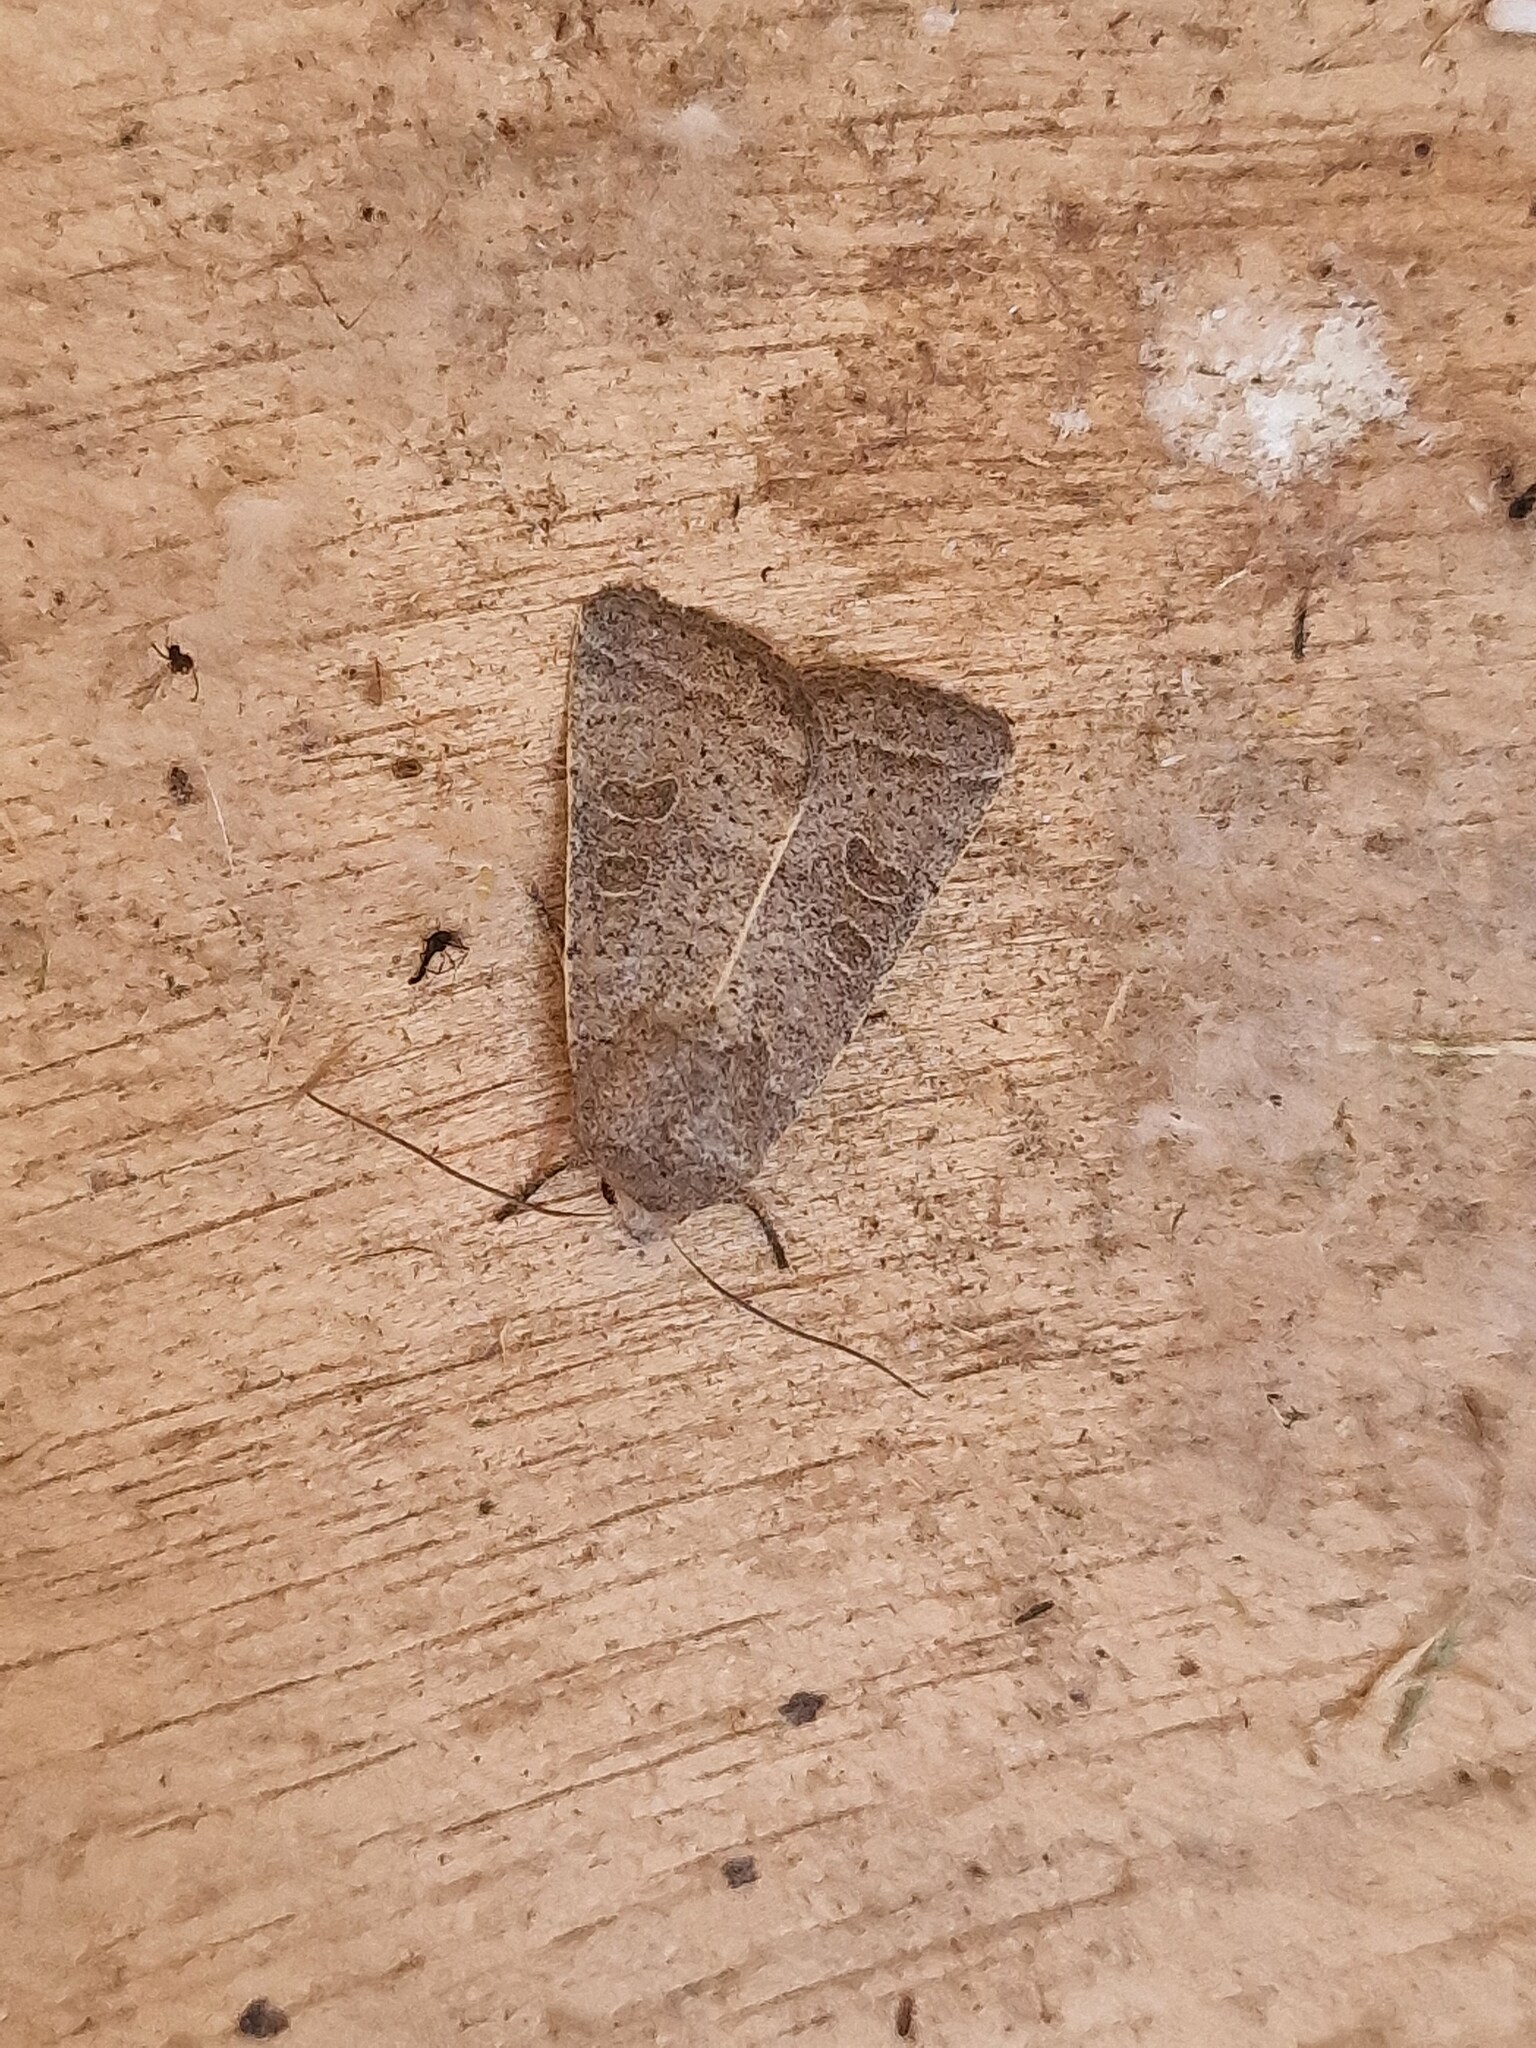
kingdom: Animalia
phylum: Arthropoda
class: Insecta
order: Lepidoptera
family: Noctuidae
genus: Hoplodrina
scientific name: Hoplodrina ambigua
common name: Vine's rustic
